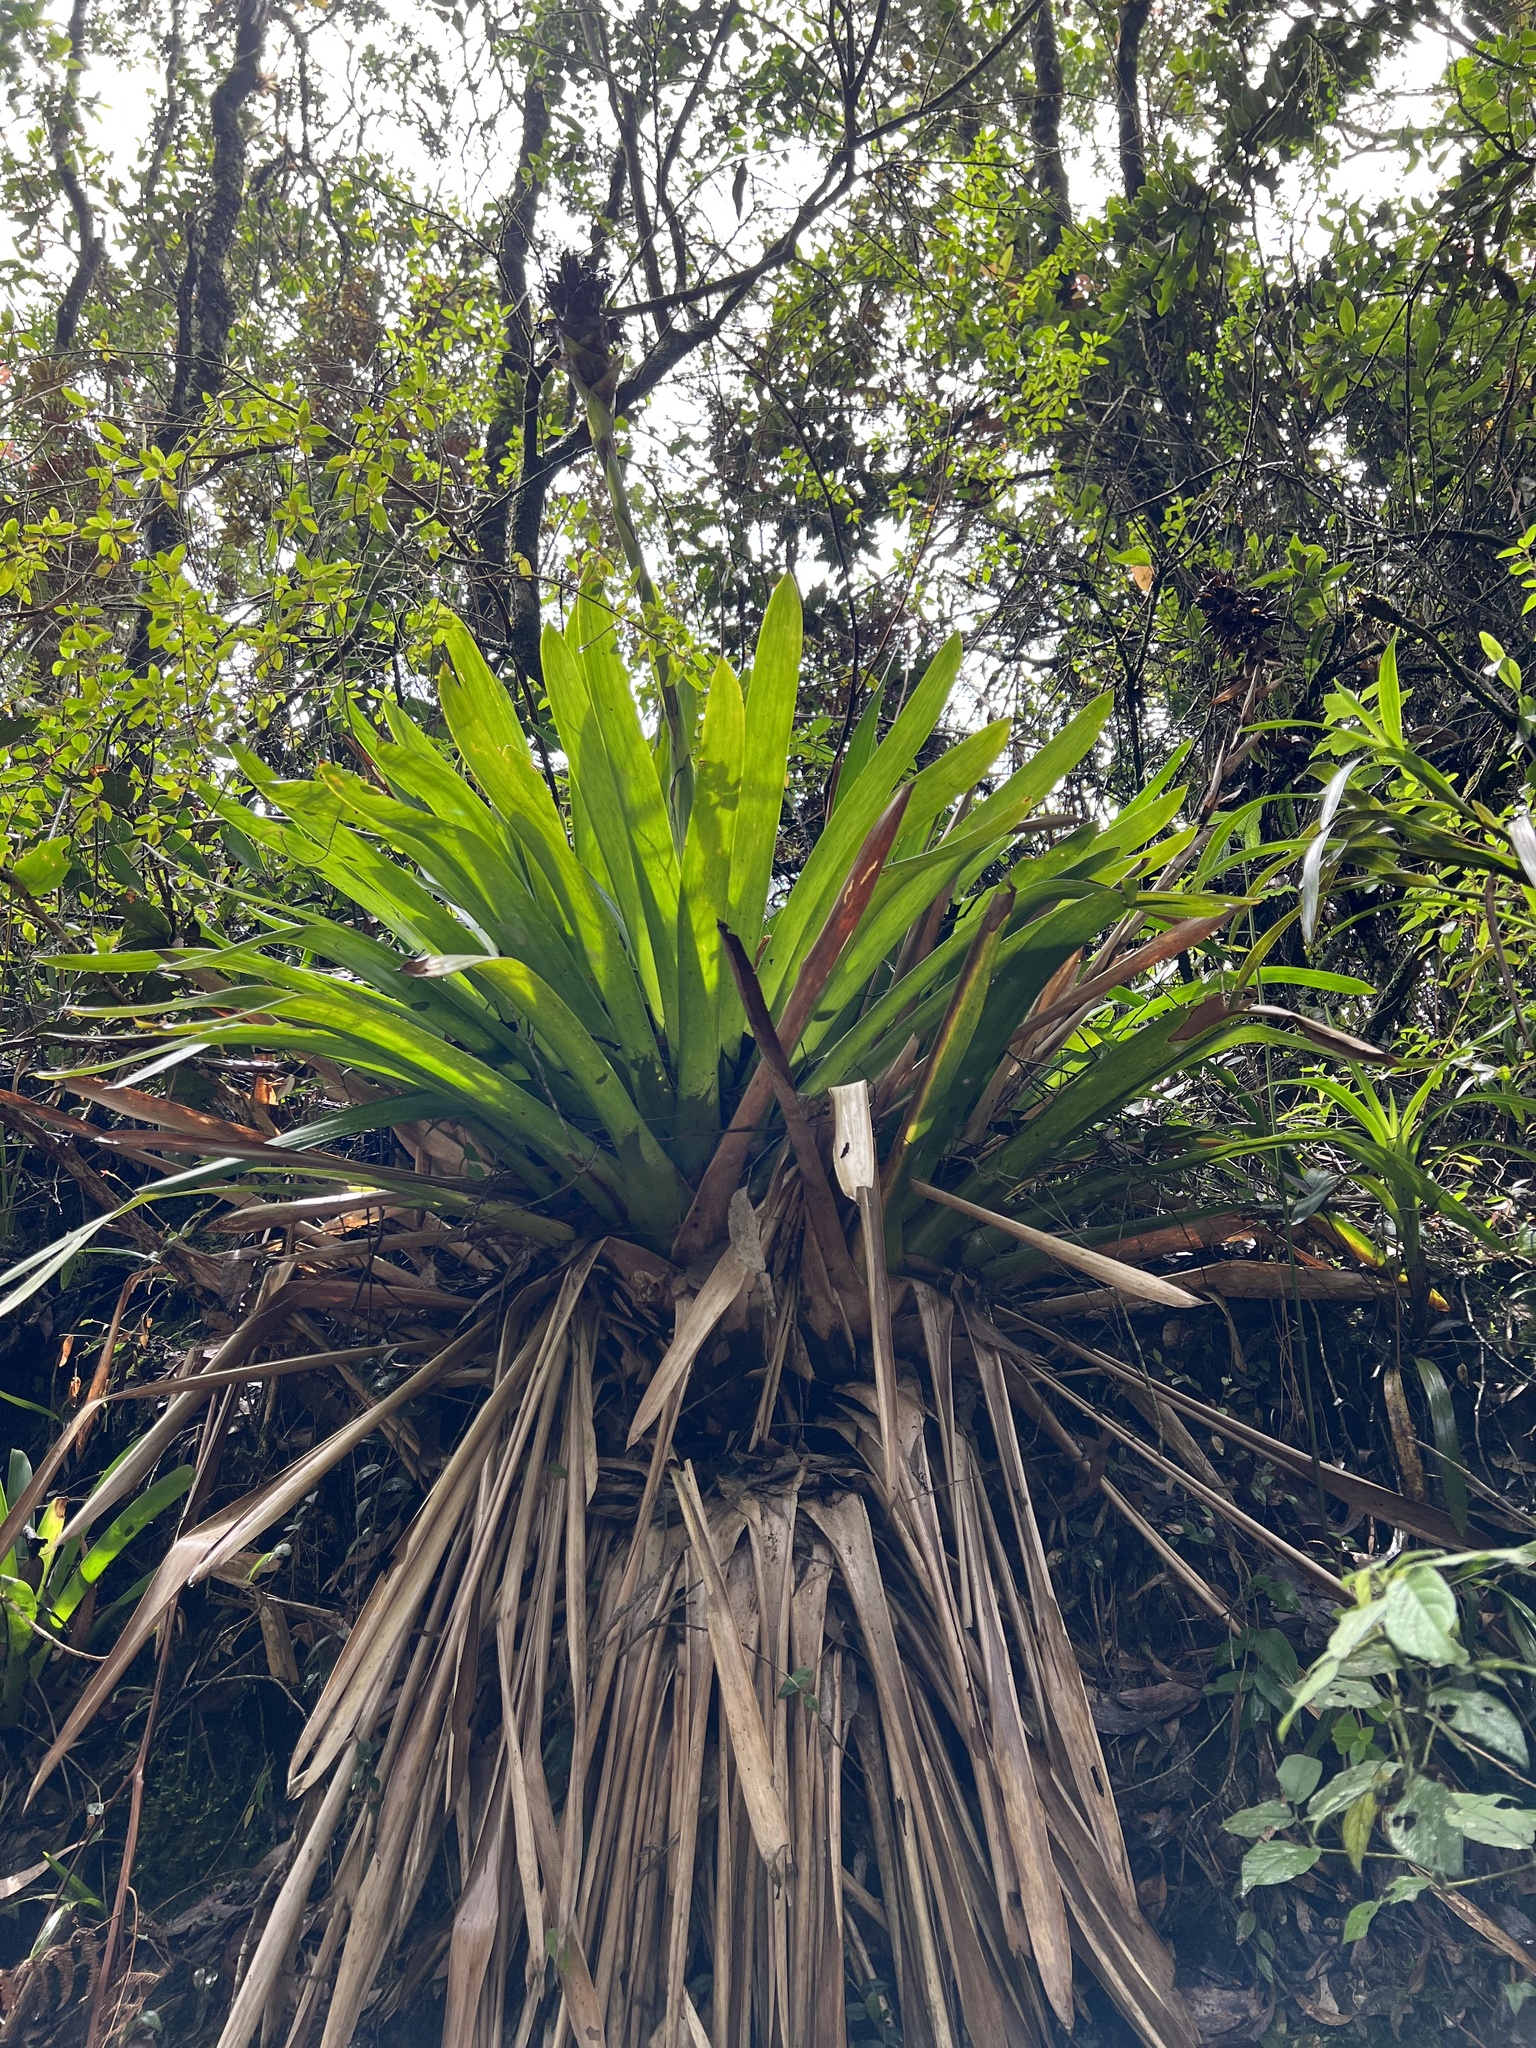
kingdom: Plantae
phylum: Tracheophyta
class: Liliopsida
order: Poales
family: Bromeliaceae
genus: Guzmania
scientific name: Guzmania mitis
